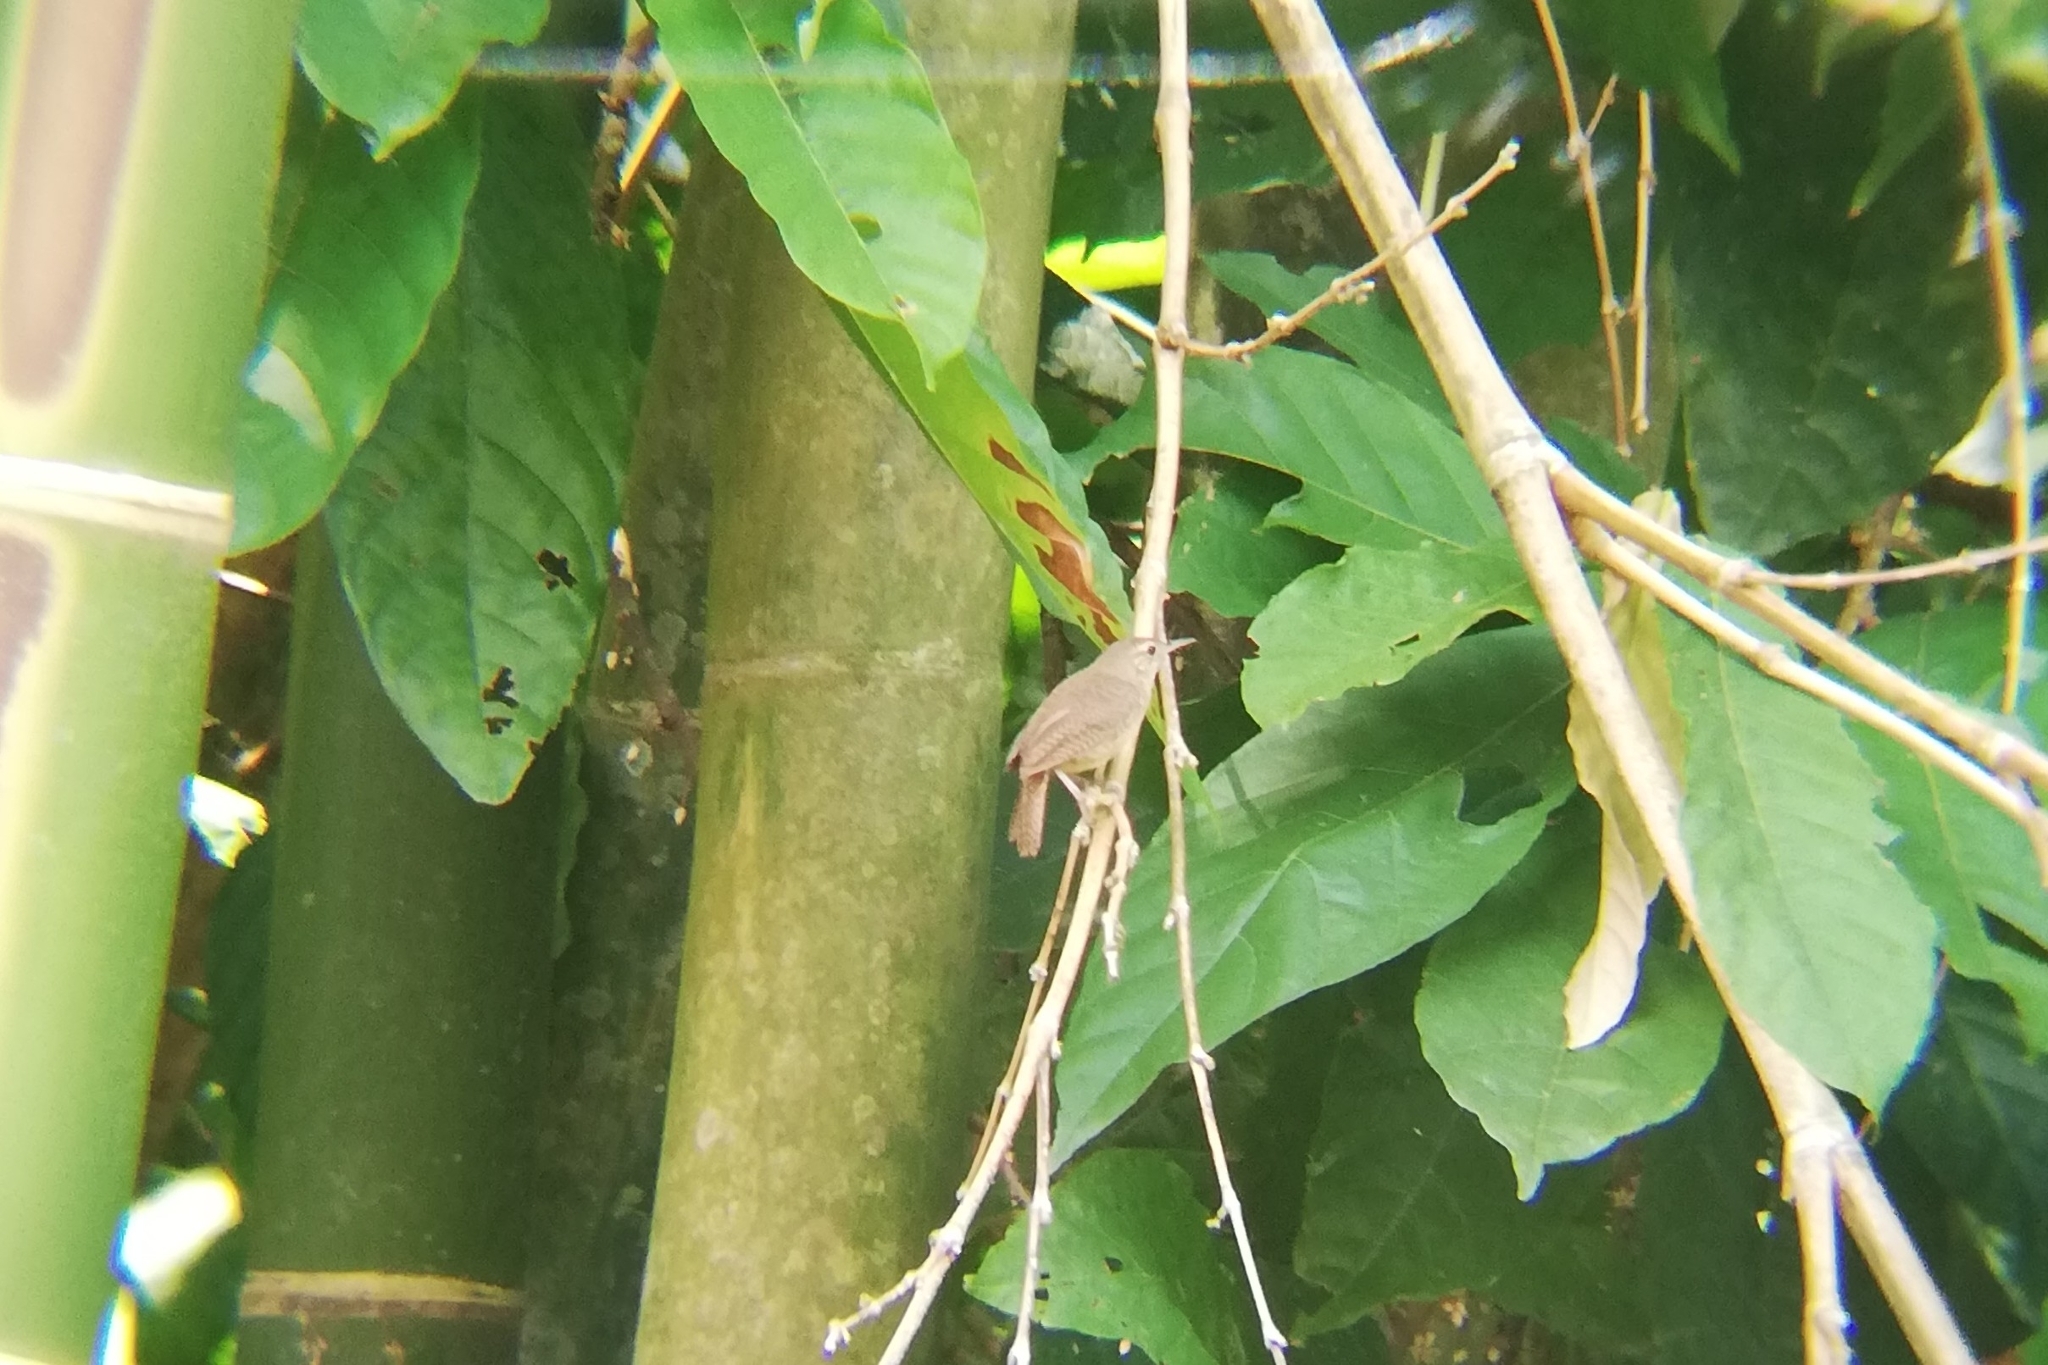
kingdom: Animalia
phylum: Chordata
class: Aves
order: Passeriformes
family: Troglodytidae
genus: Troglodytes
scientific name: Troglodytes aedon
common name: House wren
